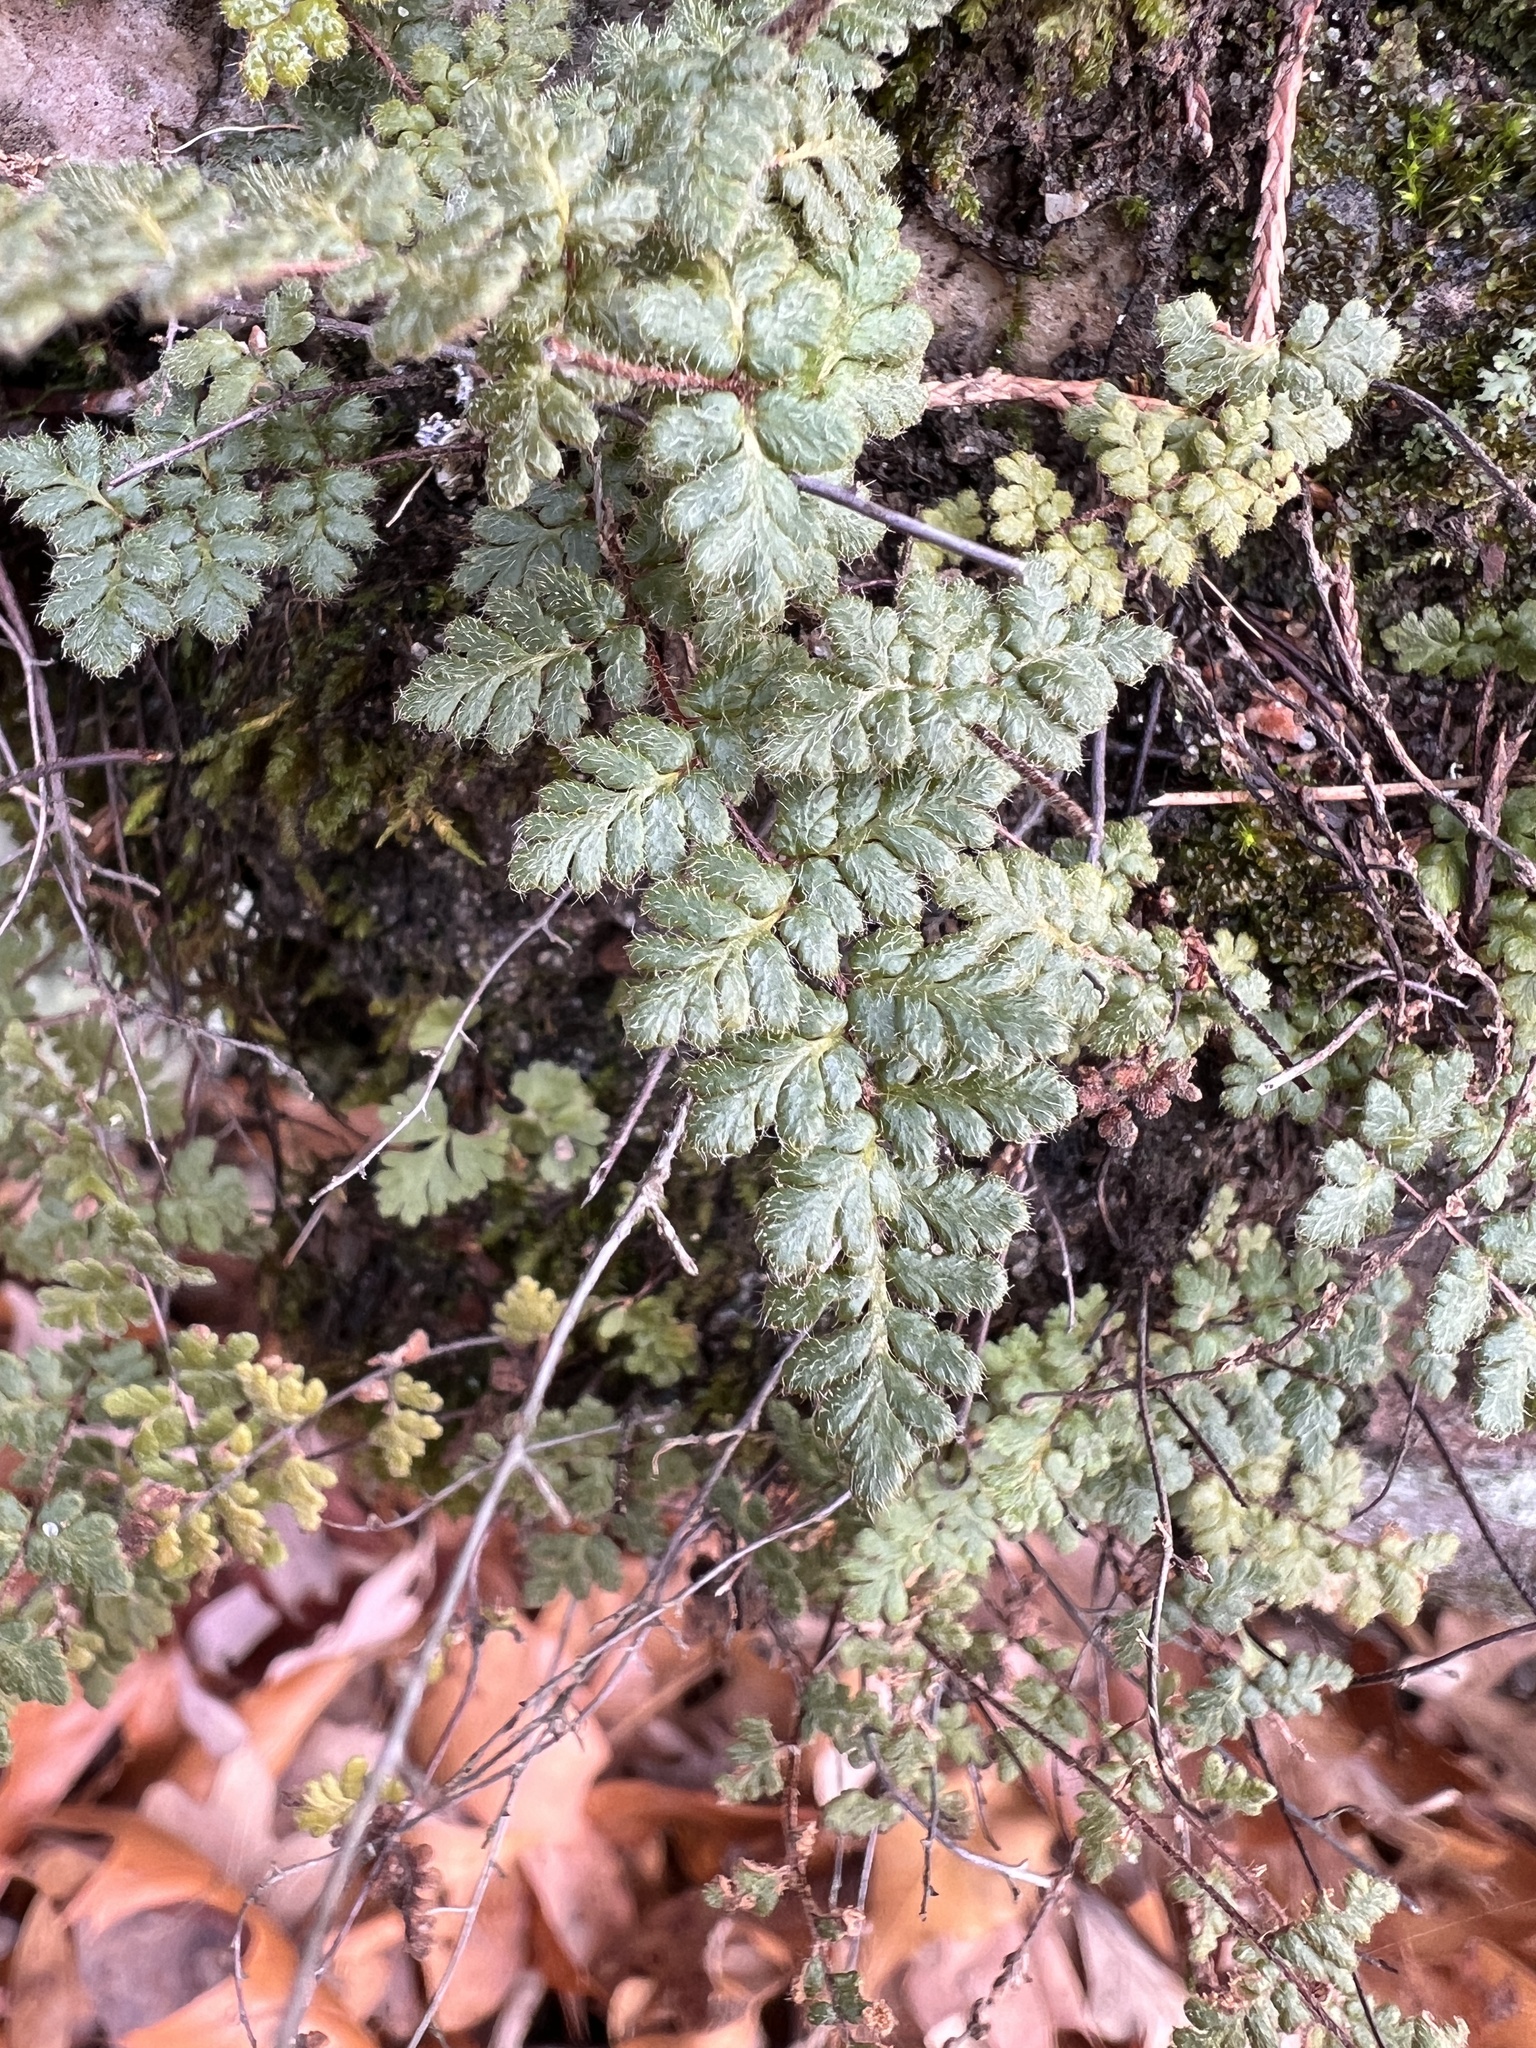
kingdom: Plantae
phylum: Tracheophyta
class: Polypodiopsida
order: Polypodiales
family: Pteridaceae
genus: Myriopteris
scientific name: Myriopteris lanosa
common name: Hairy lip fern
